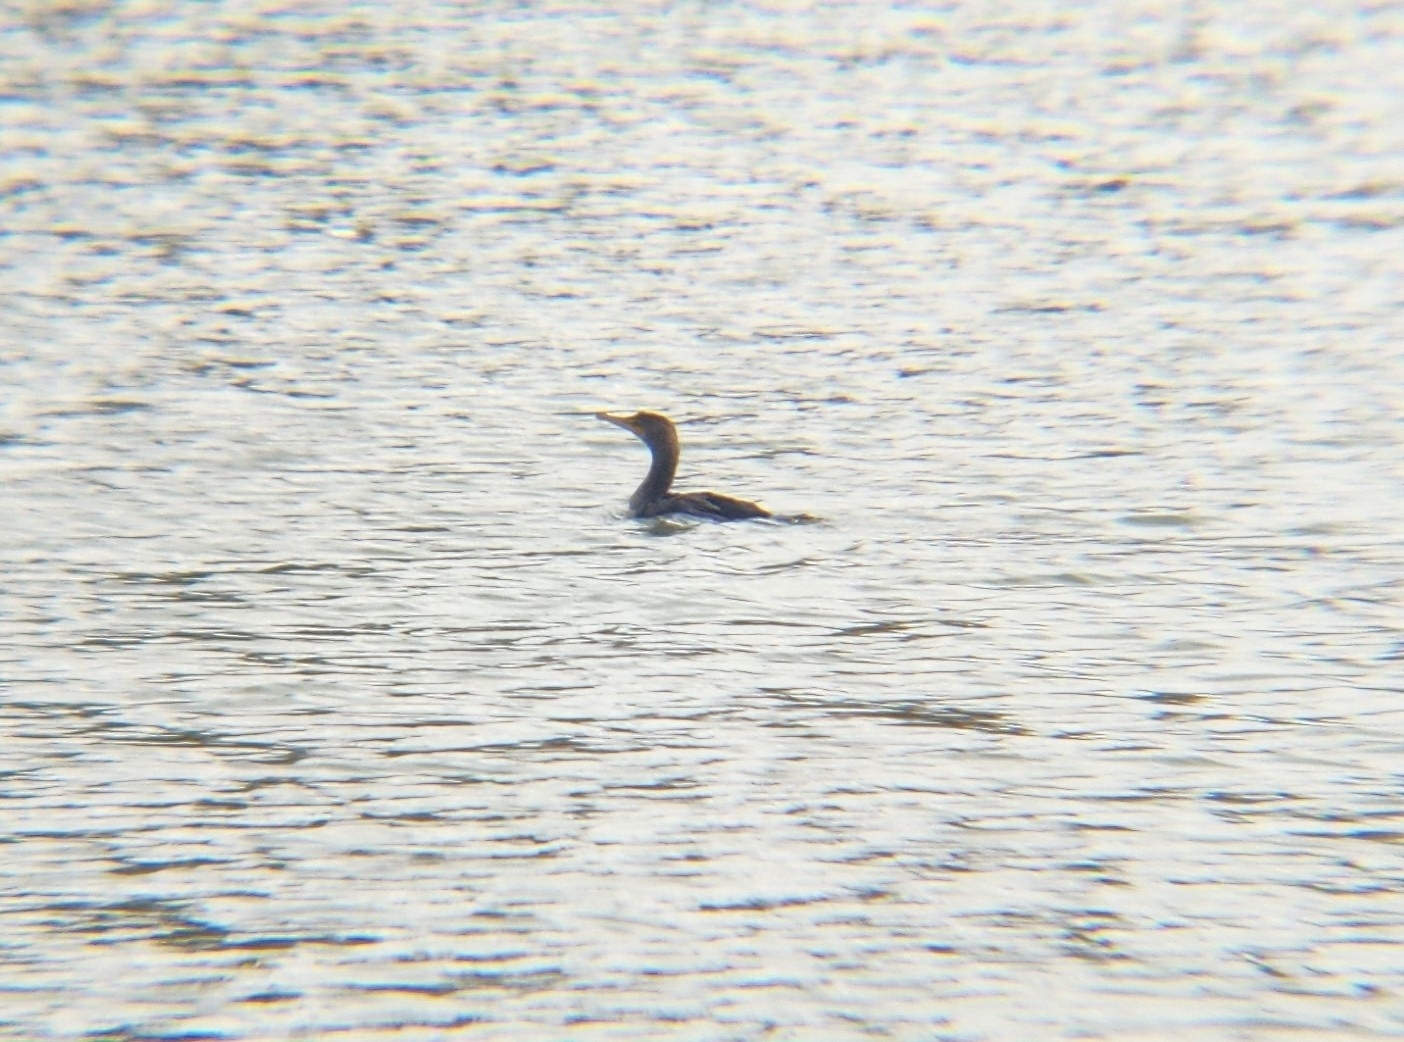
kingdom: Animalia
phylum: Chordata
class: Aves
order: Suliformes
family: Phalacrocoracidae
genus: Phalacrocorax
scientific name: Phalacrocorax auritus
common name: Double-crested cormorant
